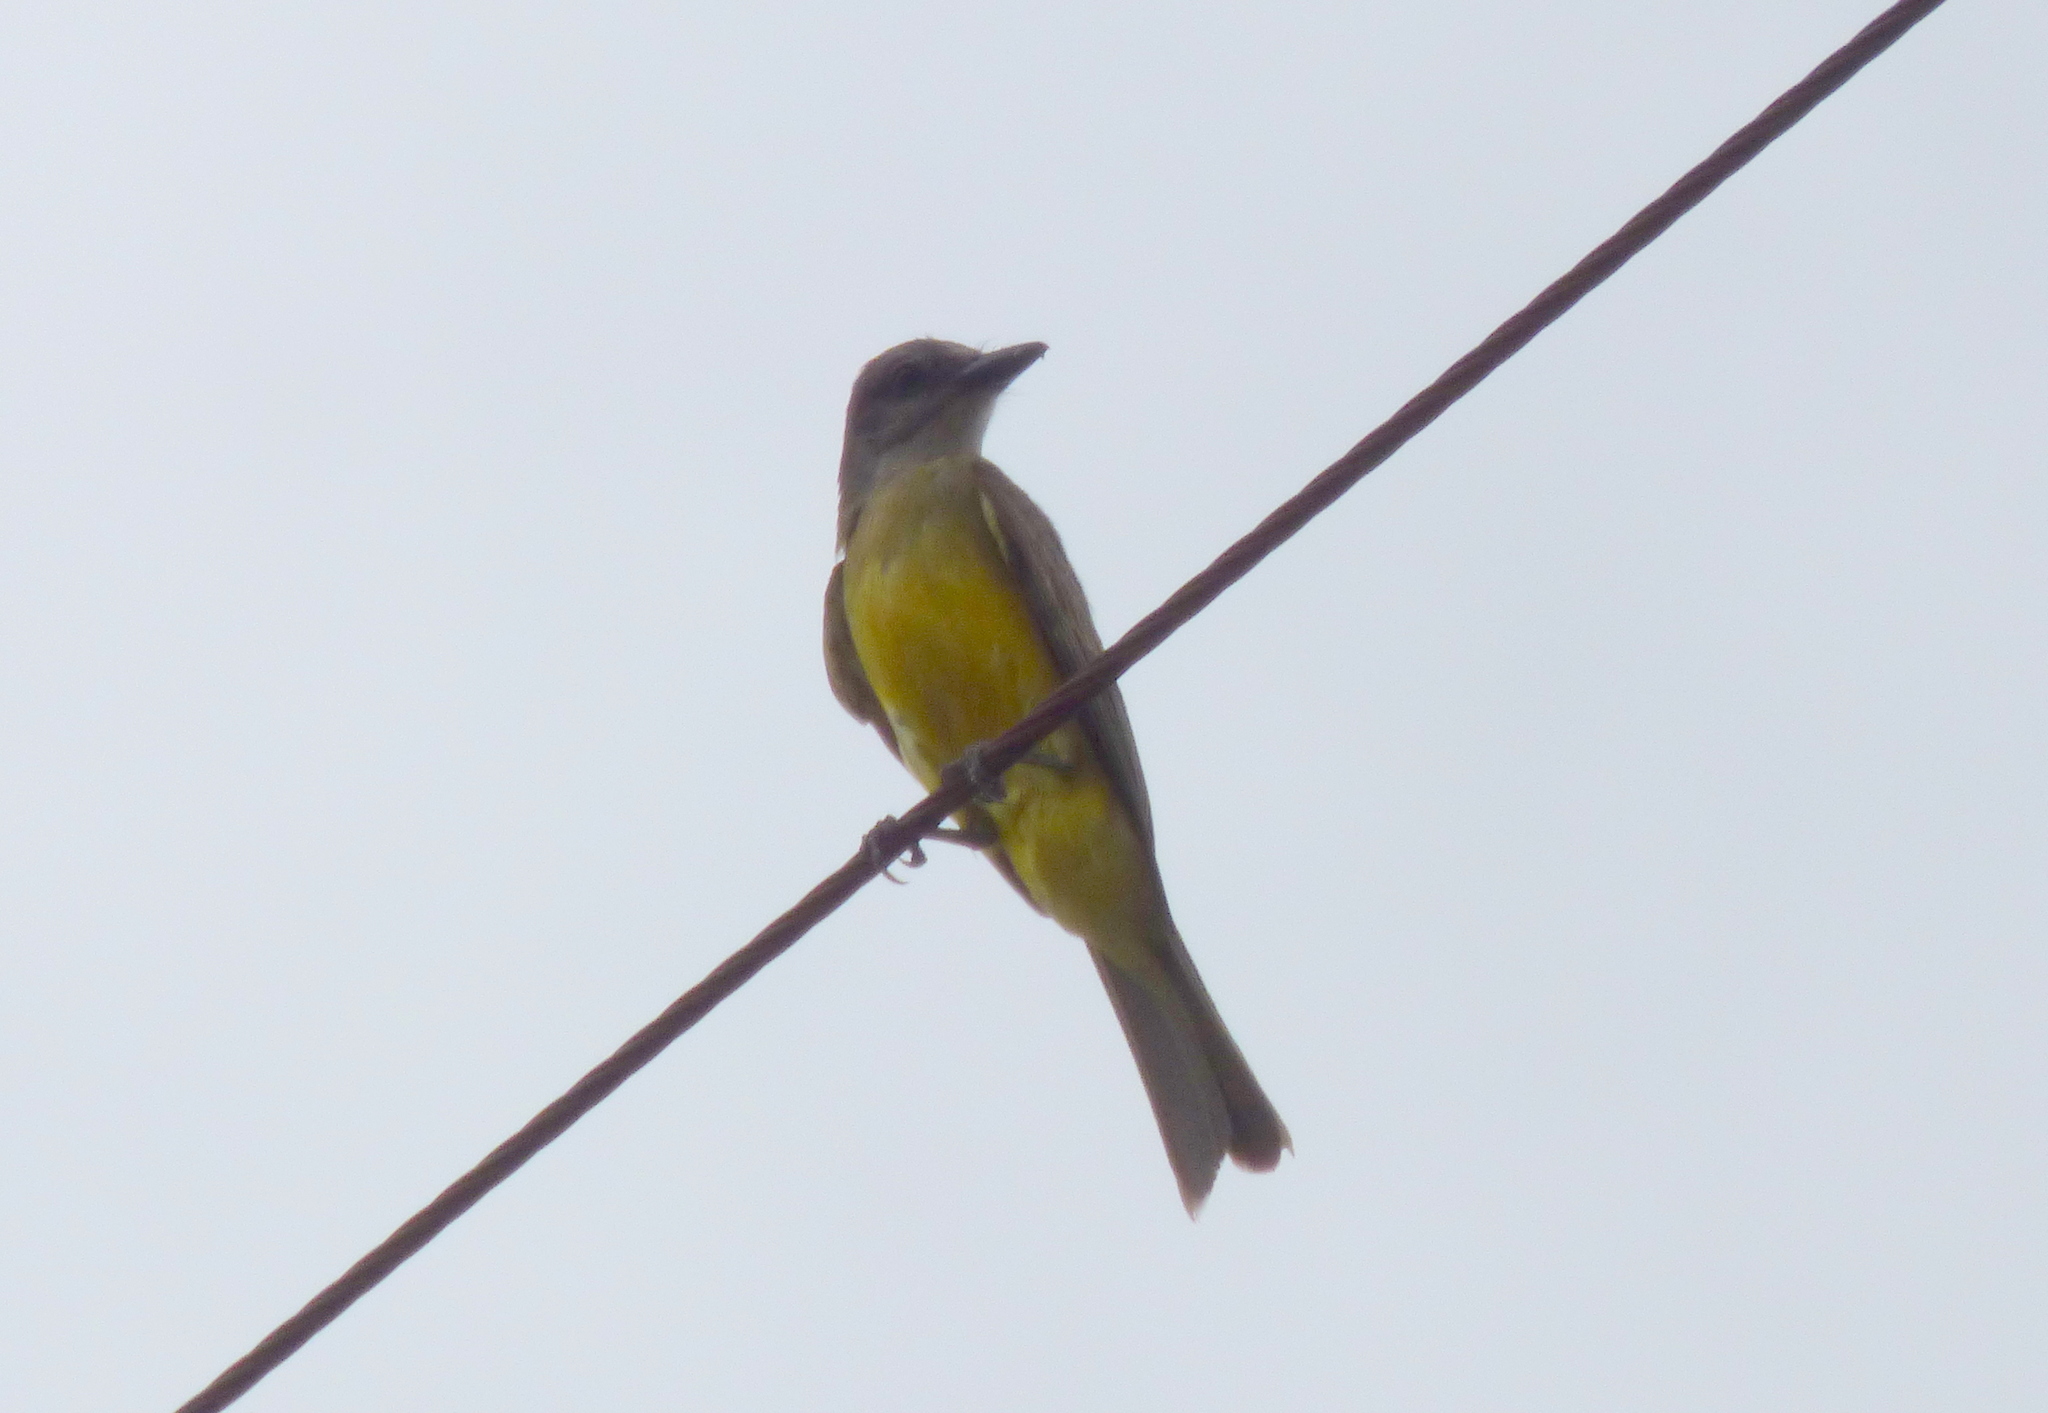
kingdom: Animalia
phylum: Chordata
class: Aves
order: Passeriformes
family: Tyrannidae
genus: Tyrannus
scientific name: Tyrannus melancholicus
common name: Tropical kingbird
